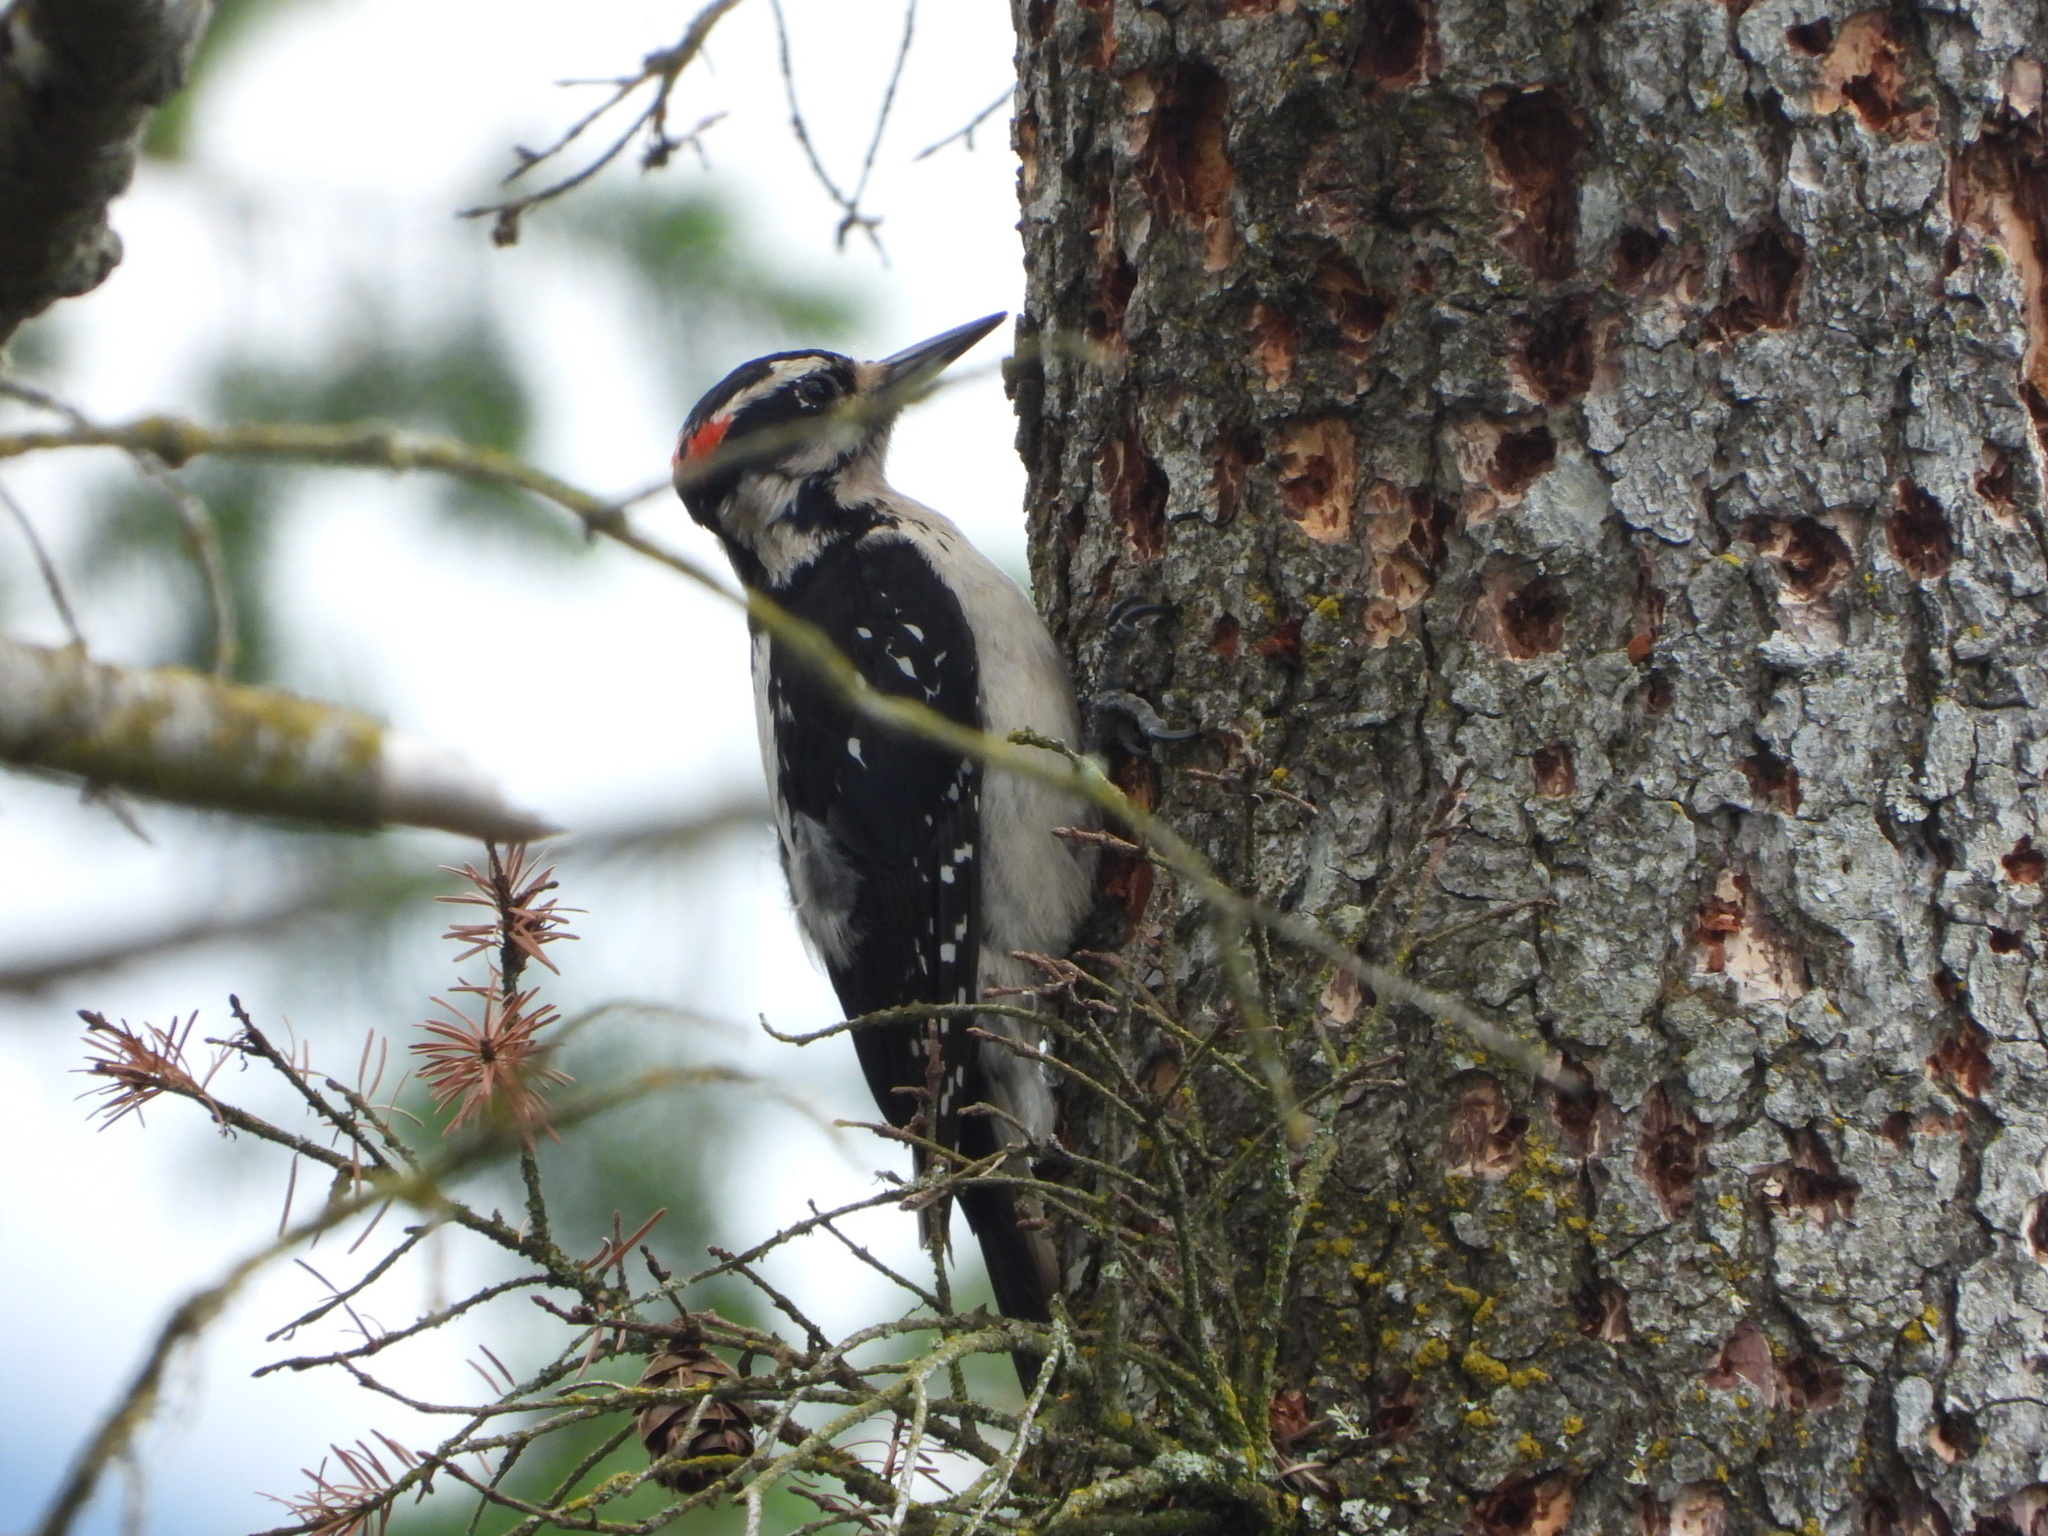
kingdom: Animalia
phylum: Chordata
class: Aves
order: Piciformes
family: Picidae
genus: Leuconotopicus
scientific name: Leuconotopicus villosus
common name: Hairy woodpecker
